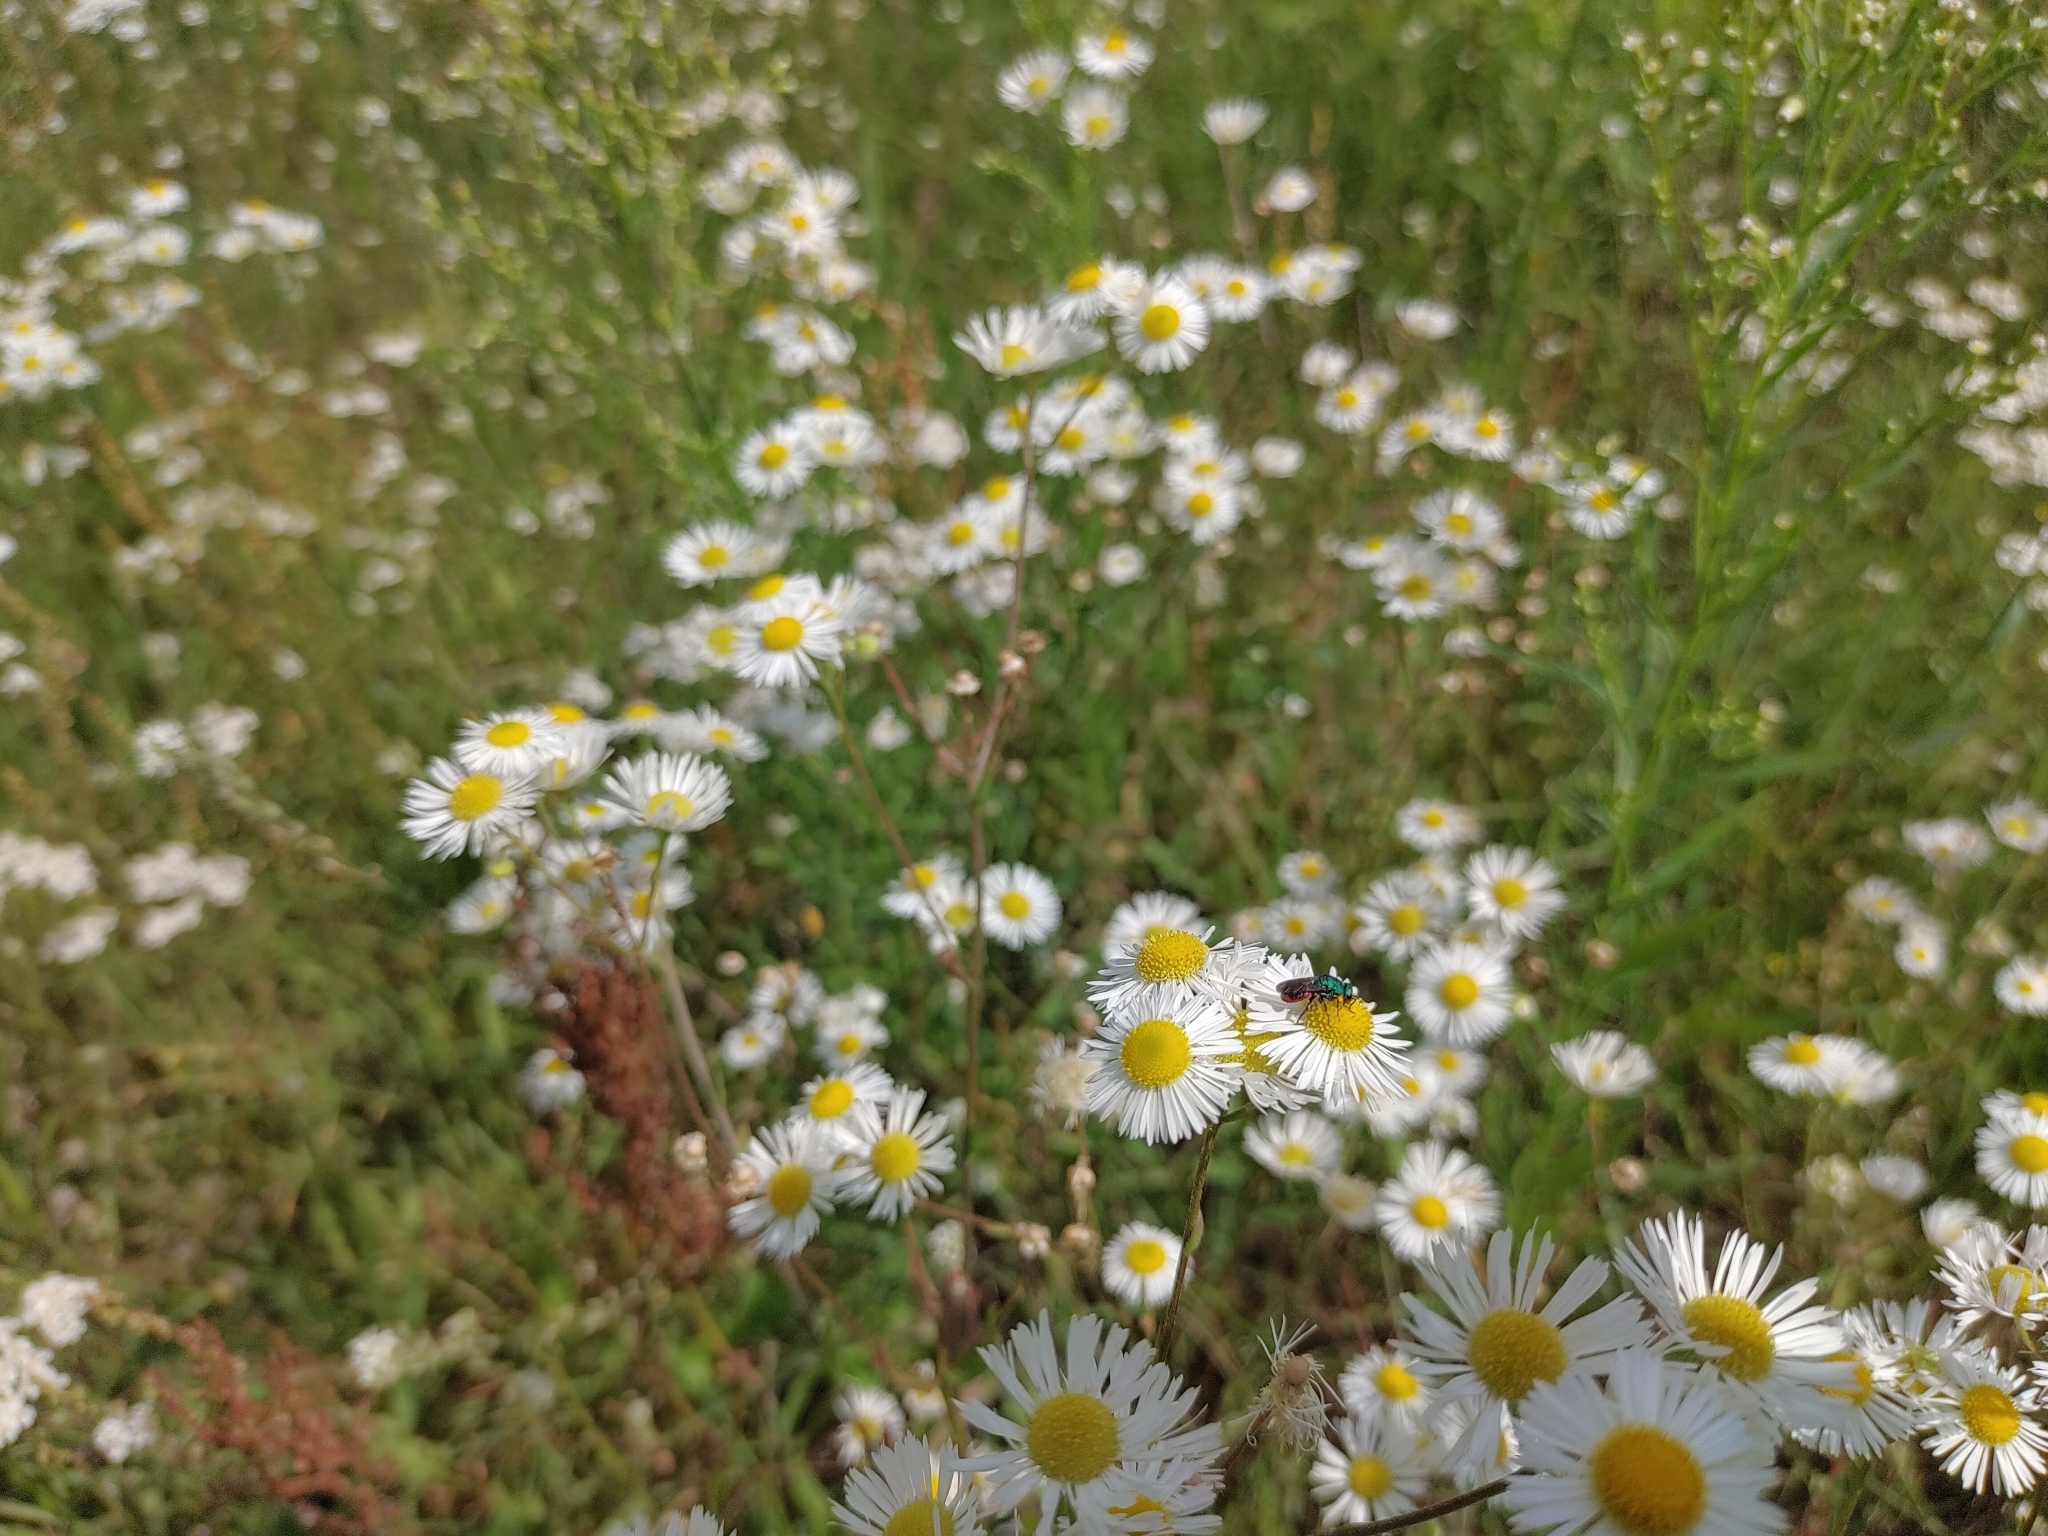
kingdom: Plantae
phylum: Tracheophyta
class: Magnoliopsida
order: Asterales
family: Asteraceae
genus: Erigeron
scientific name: Erigeron annuus
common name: Tall fleabane
